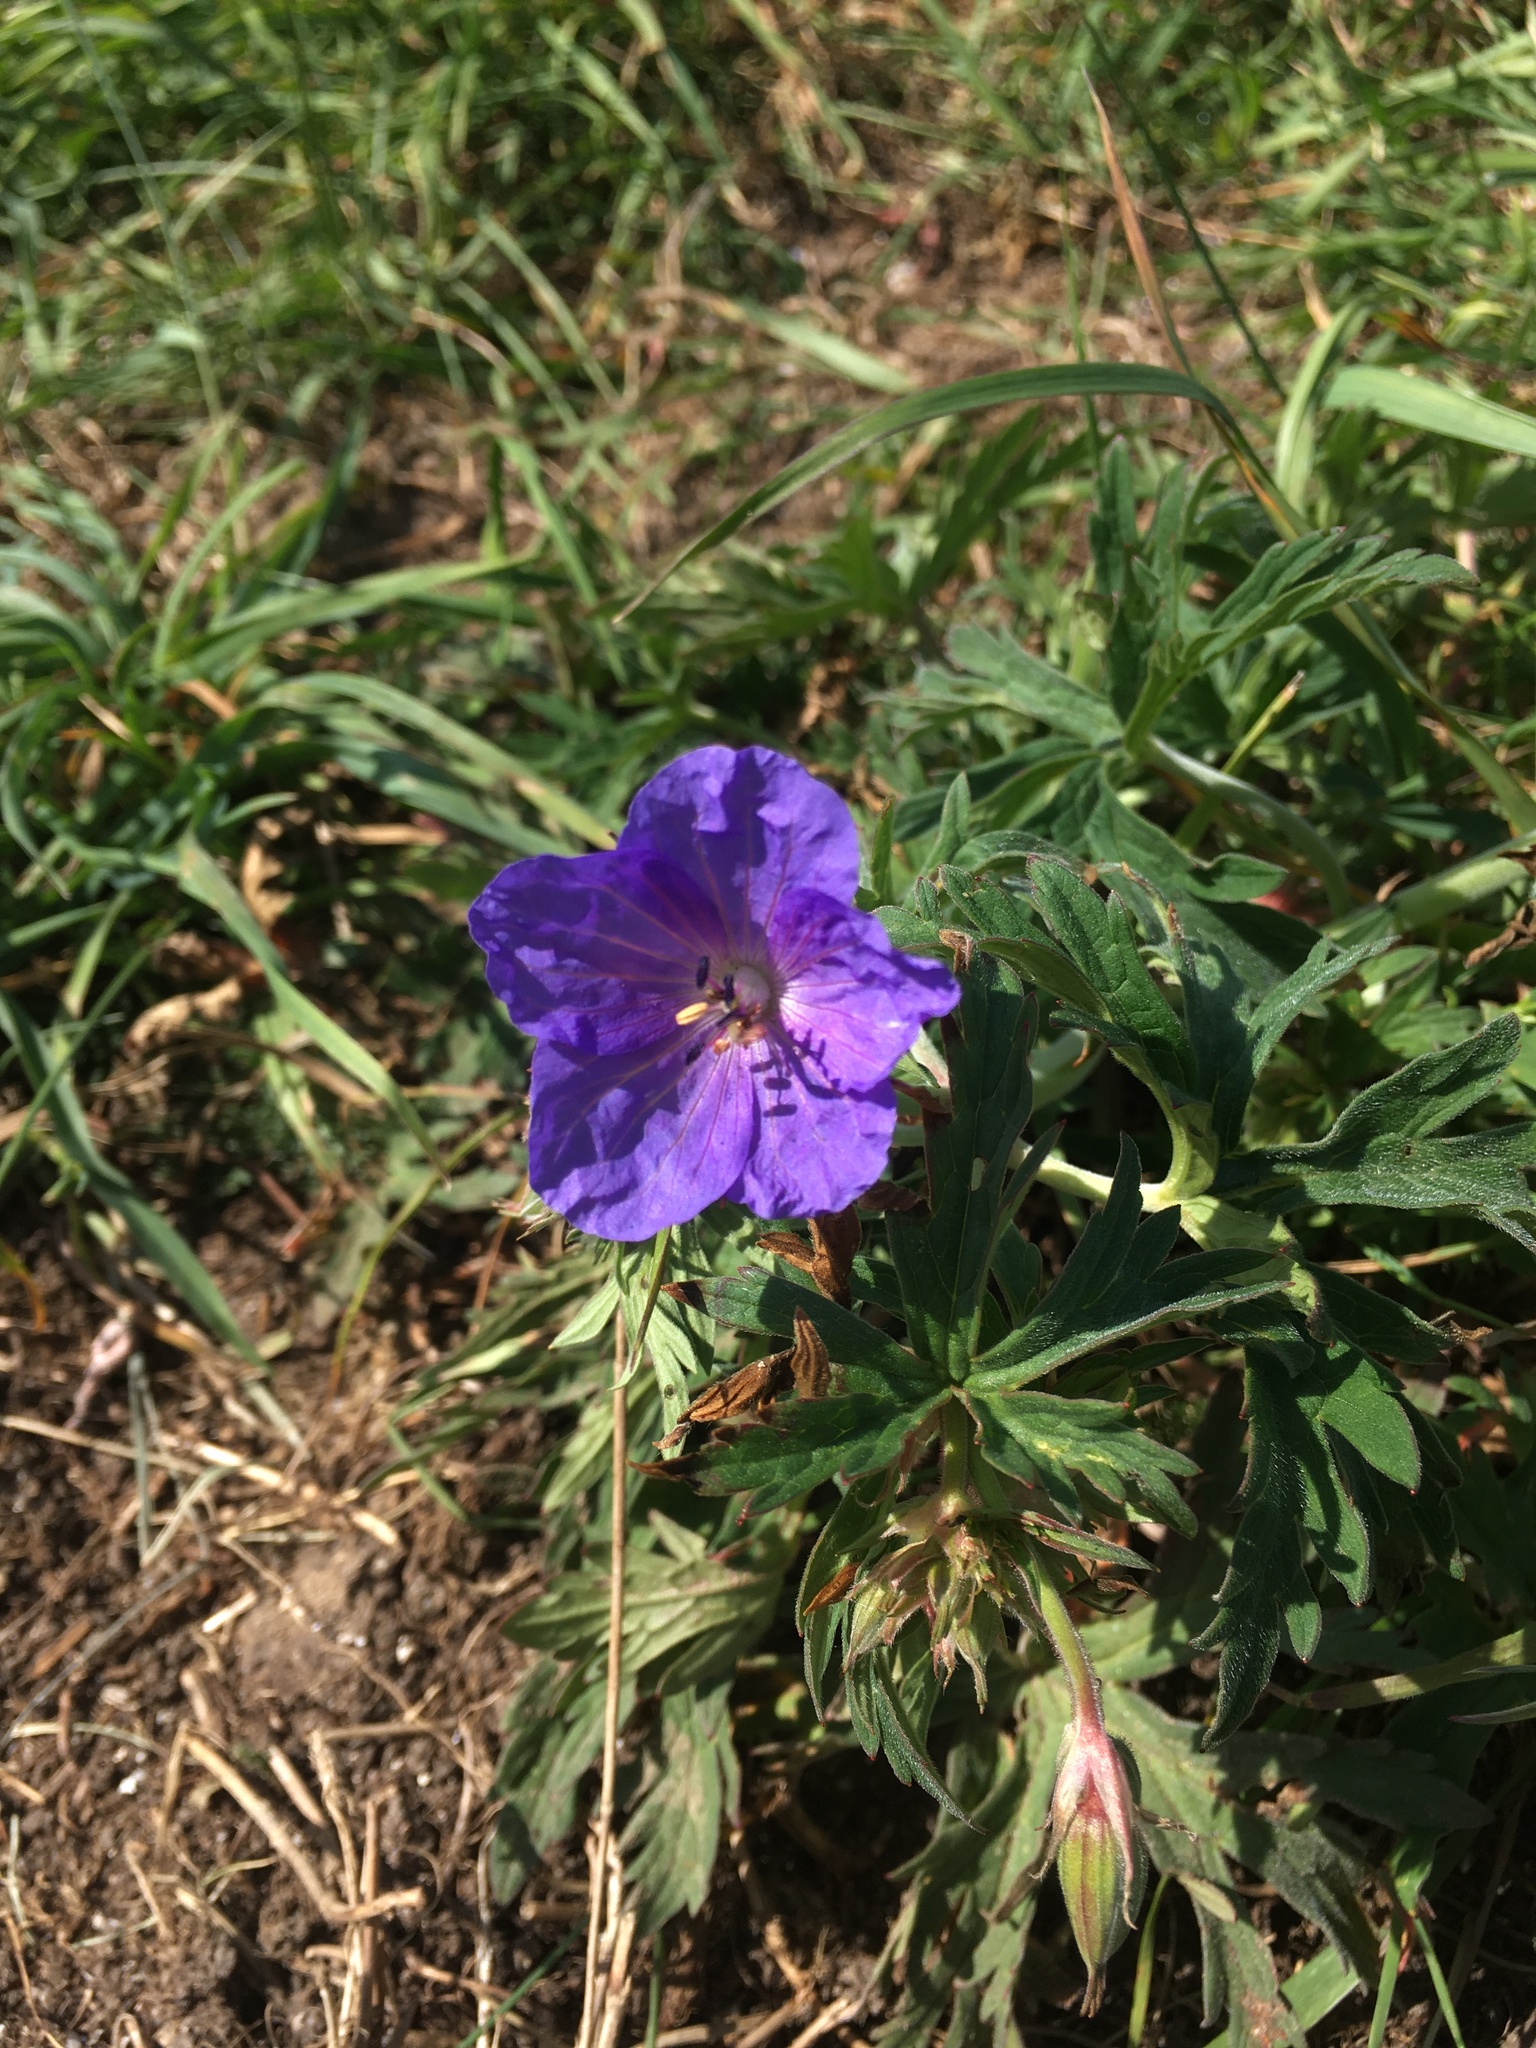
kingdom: Plantae
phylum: Tracheophyta
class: Magnoliopsida
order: Geraniales
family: Geraniaceae
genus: Geranium
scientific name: Geranium pratense
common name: Meadow crane's-bill
